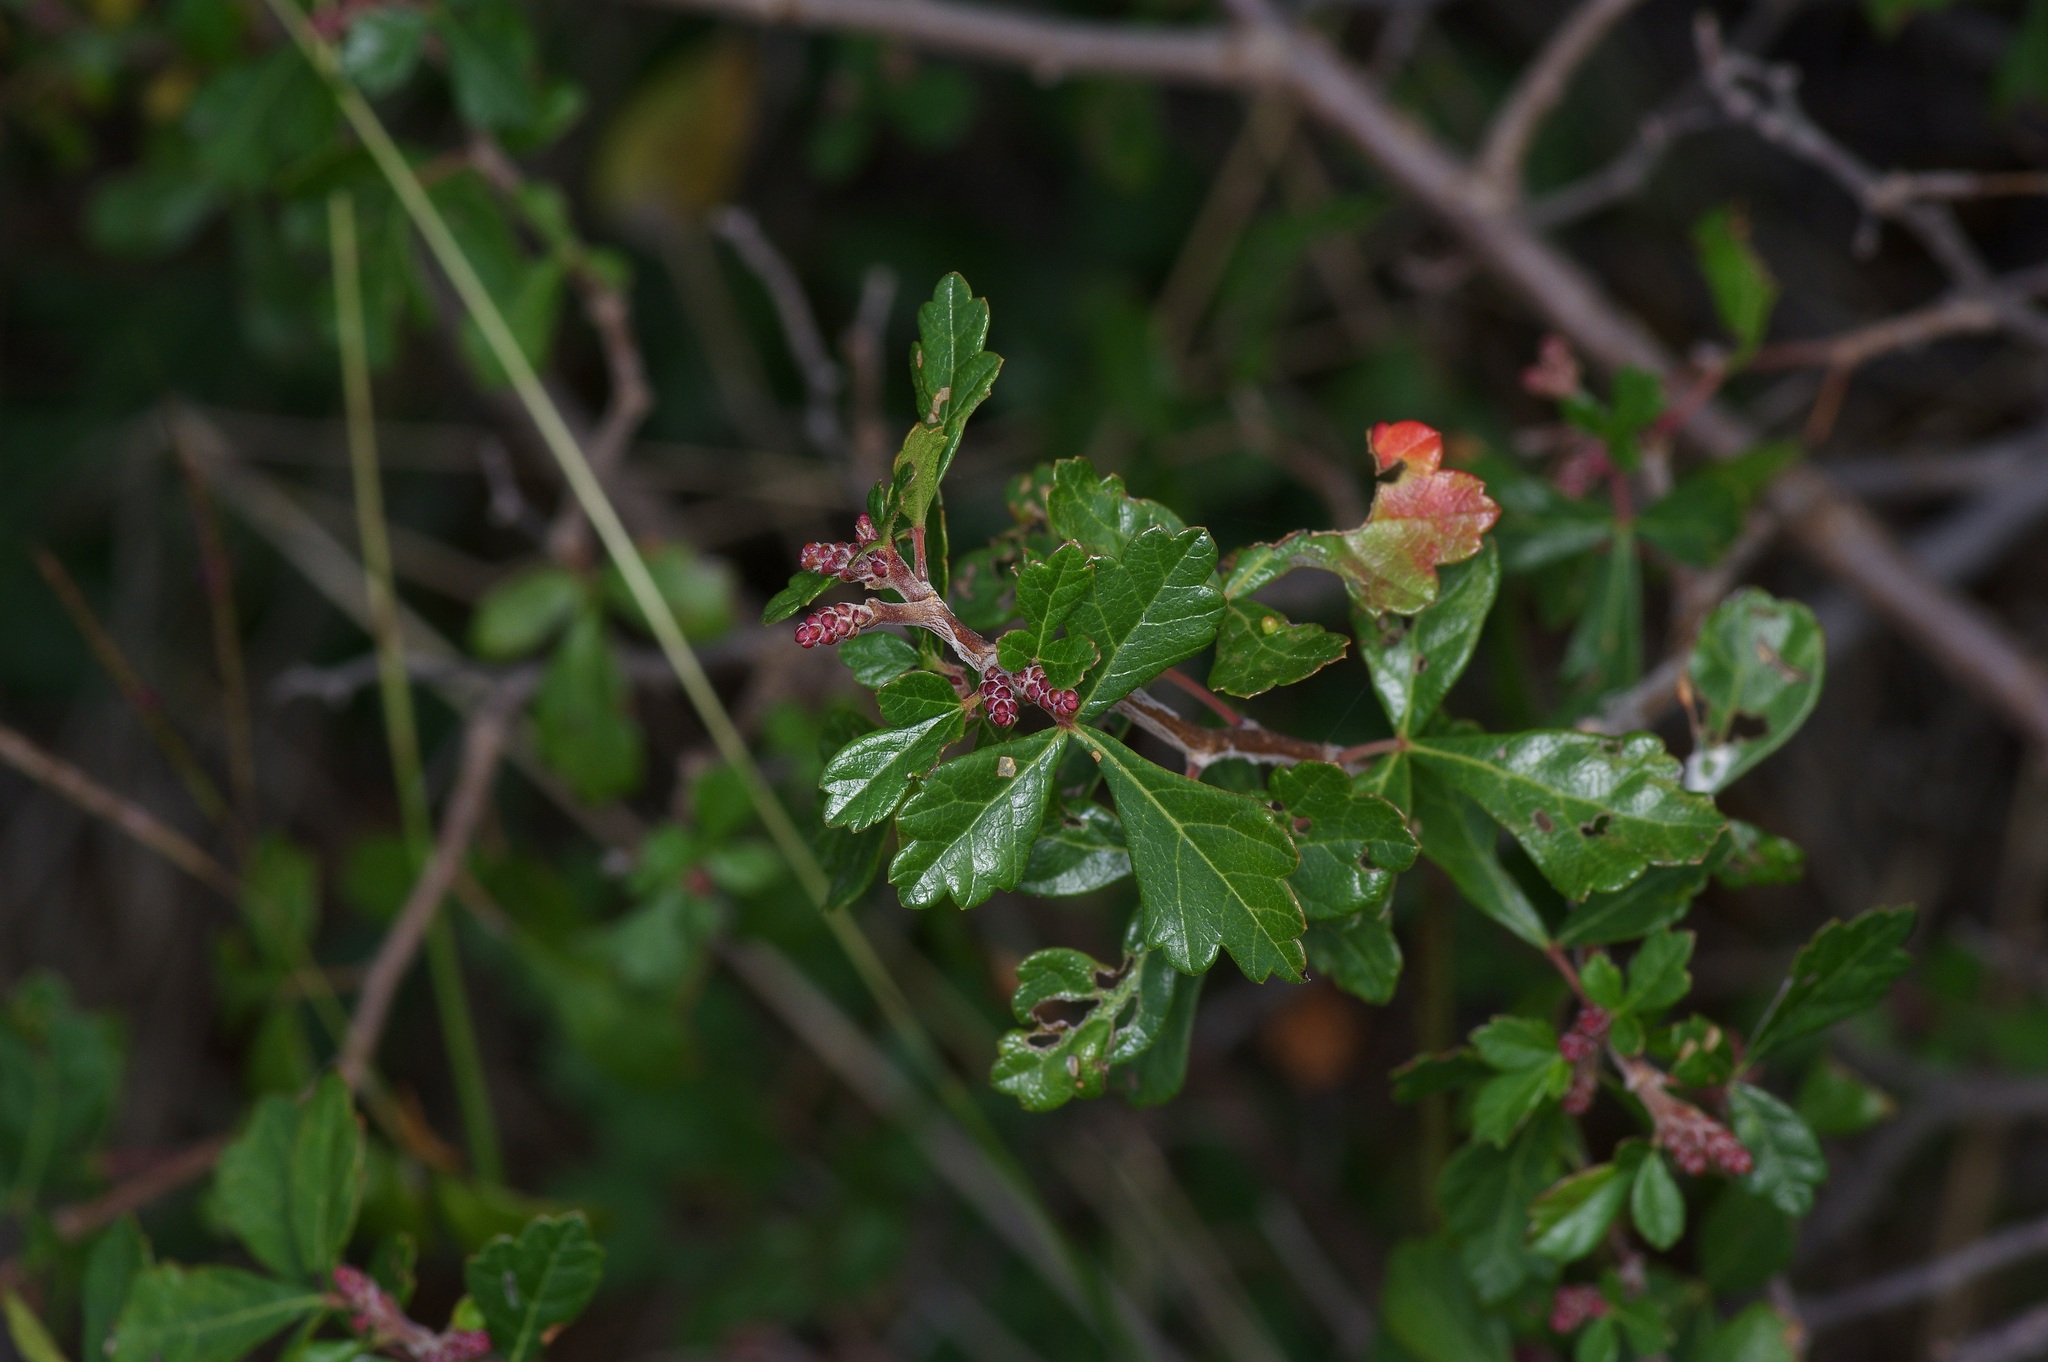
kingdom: Plantae
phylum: Tracheophyta
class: Magnoliopsida
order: Sapindales
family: Anacardiaceae
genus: Rhus
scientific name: Rhus aromatica
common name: Aromatic sumac
